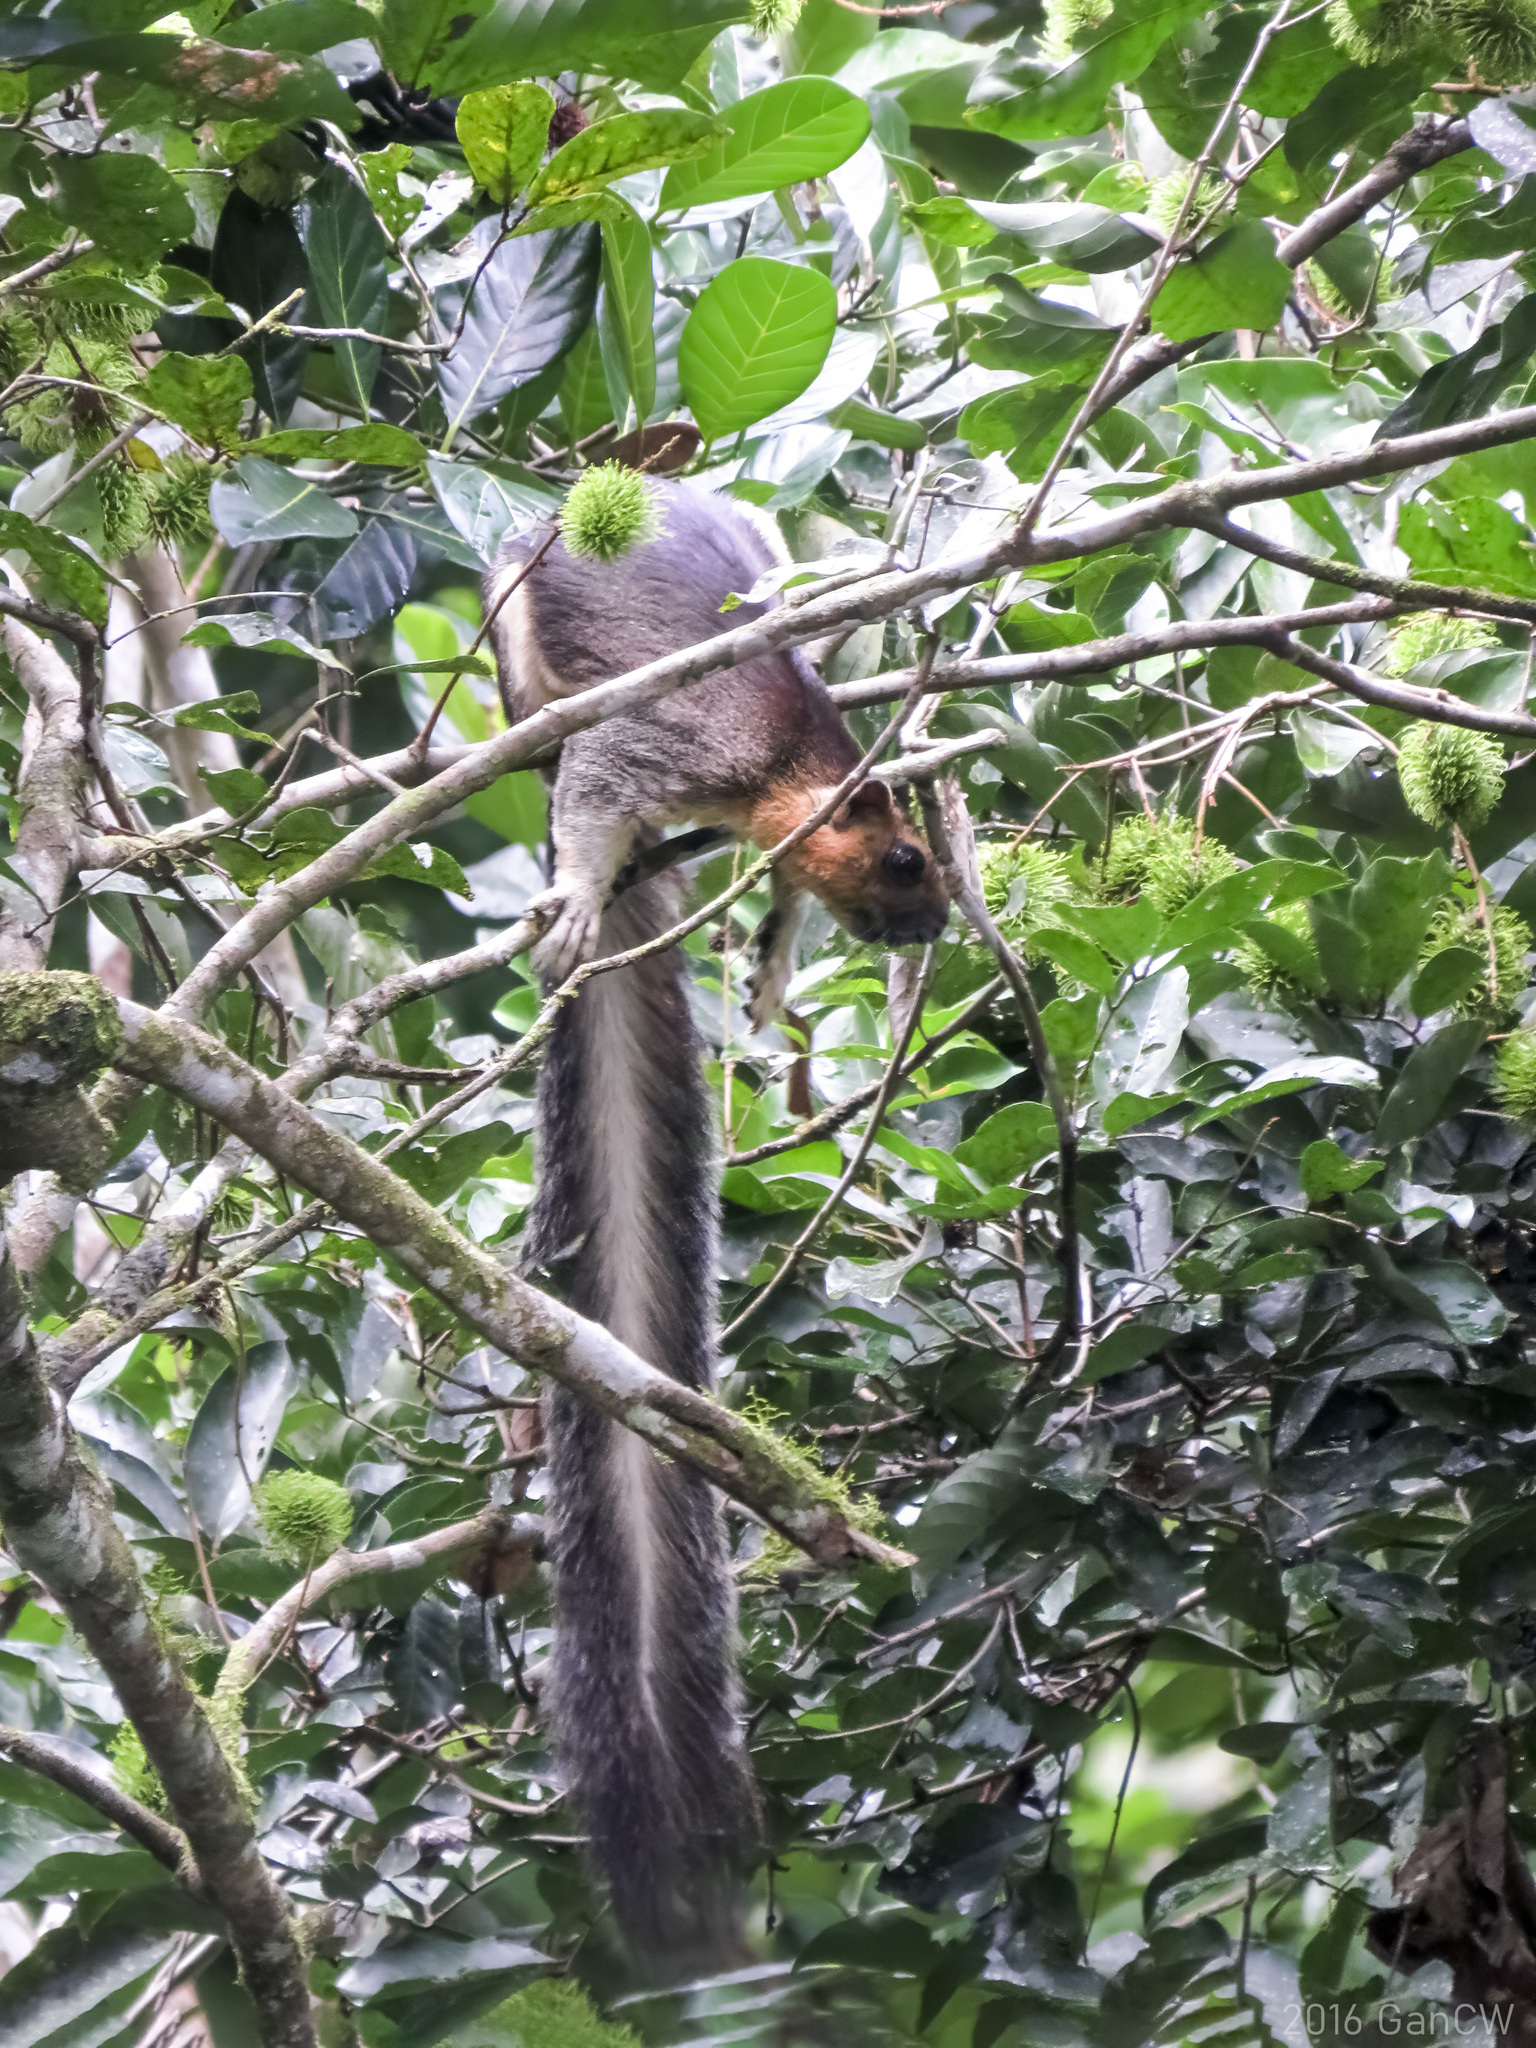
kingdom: Animalia
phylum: Chordata
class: Mammalia
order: Rodentia
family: Sciuridae
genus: Ratufa
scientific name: Ratufa affinis
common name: Pale giant squirrel
